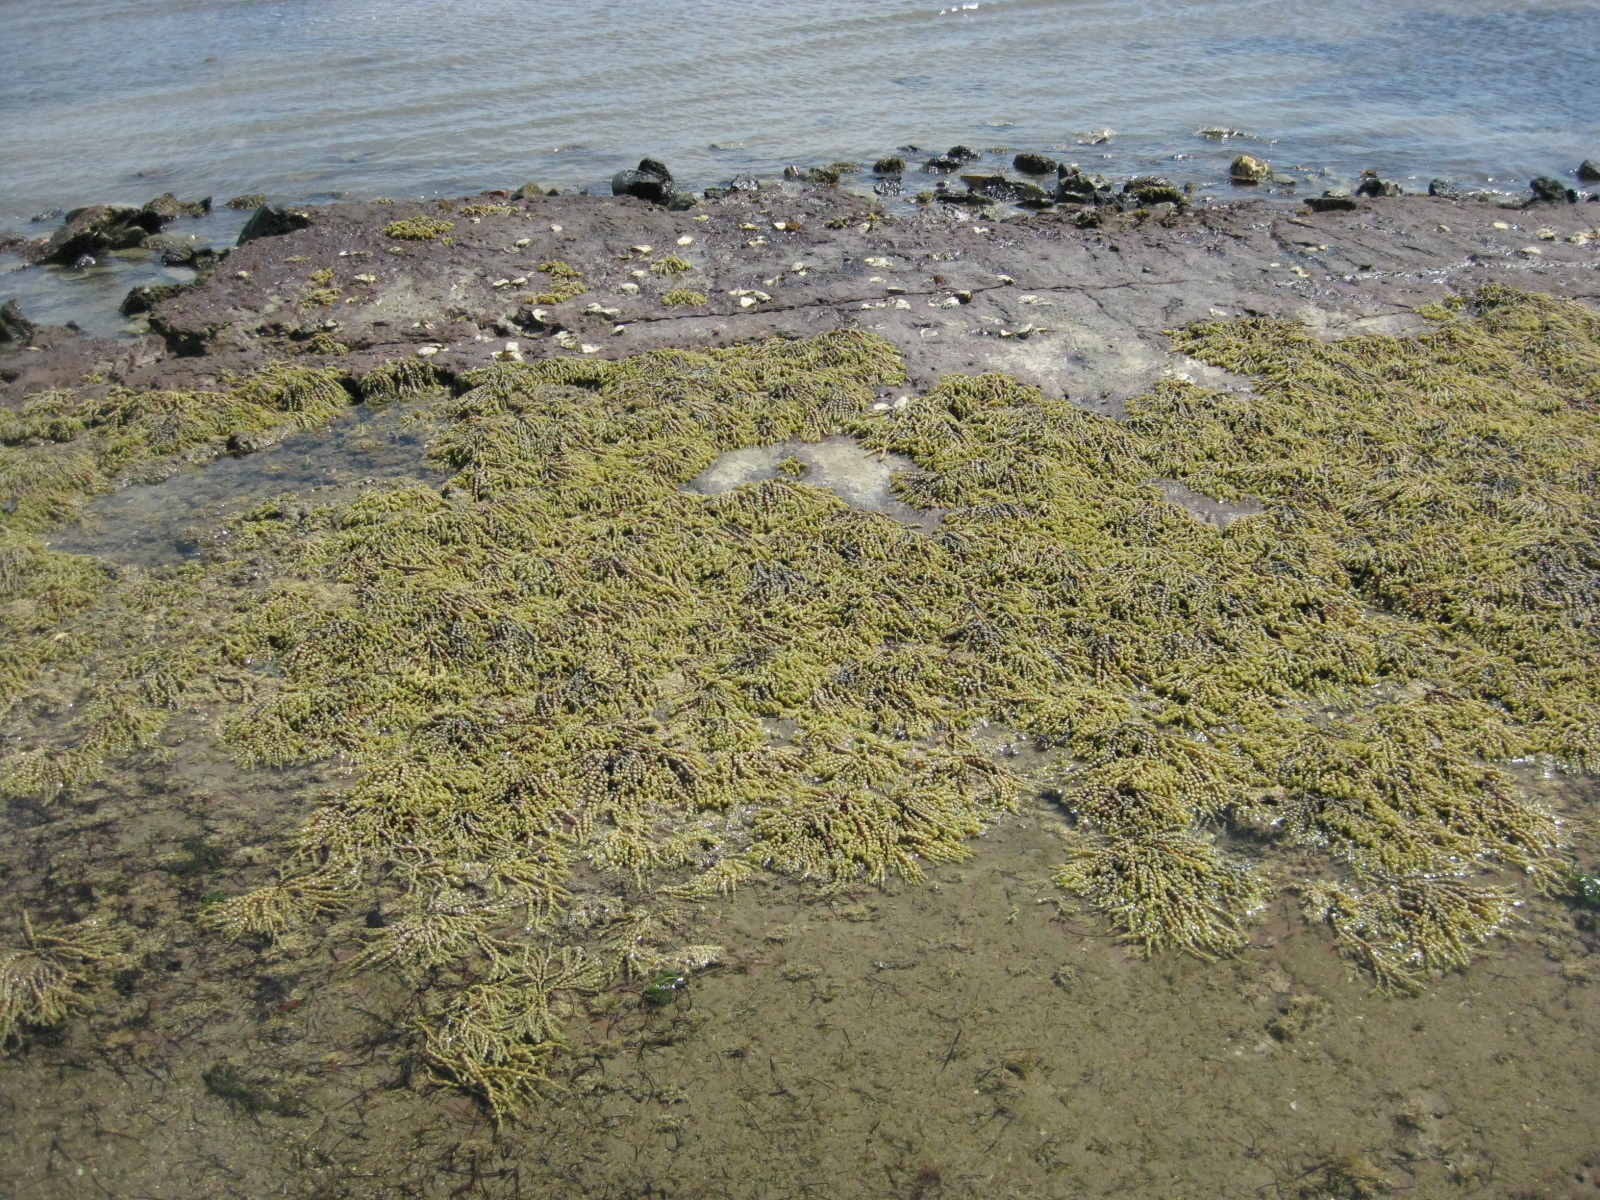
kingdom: Chromista
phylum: Ochrophyta
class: Phaeophyceae
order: Fucales
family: Hormosiraceae
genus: Hormosira
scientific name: Hormosira banksii
